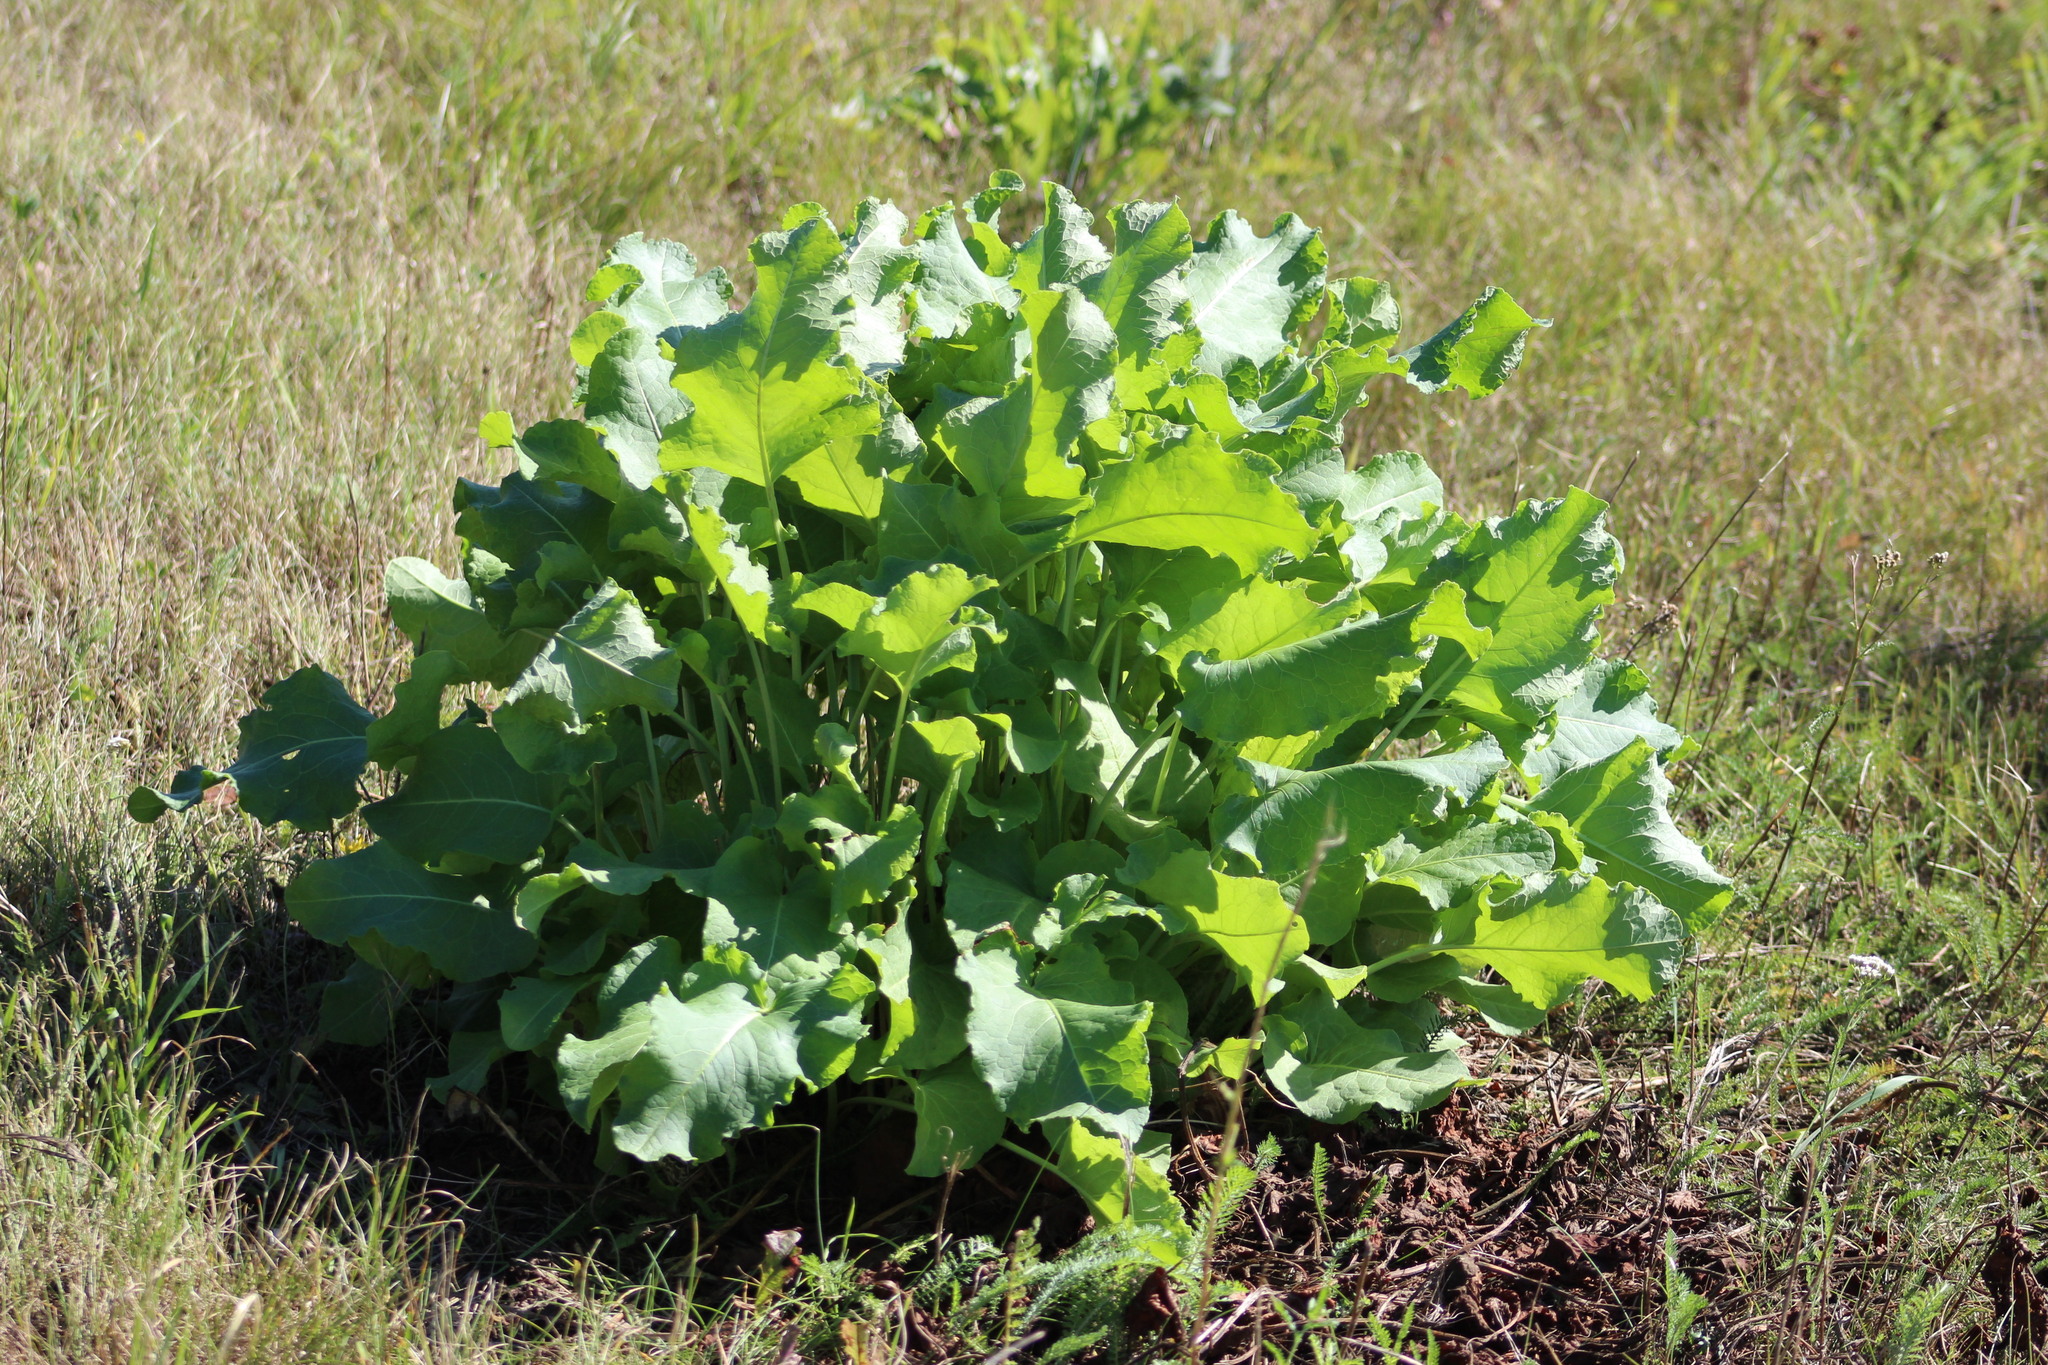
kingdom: Plantae
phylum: Tracheophyta
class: Magnoliopsida
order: Caryophyllales
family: Polygonaceae
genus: Rumex
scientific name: Rumex confertus
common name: Russian dock
